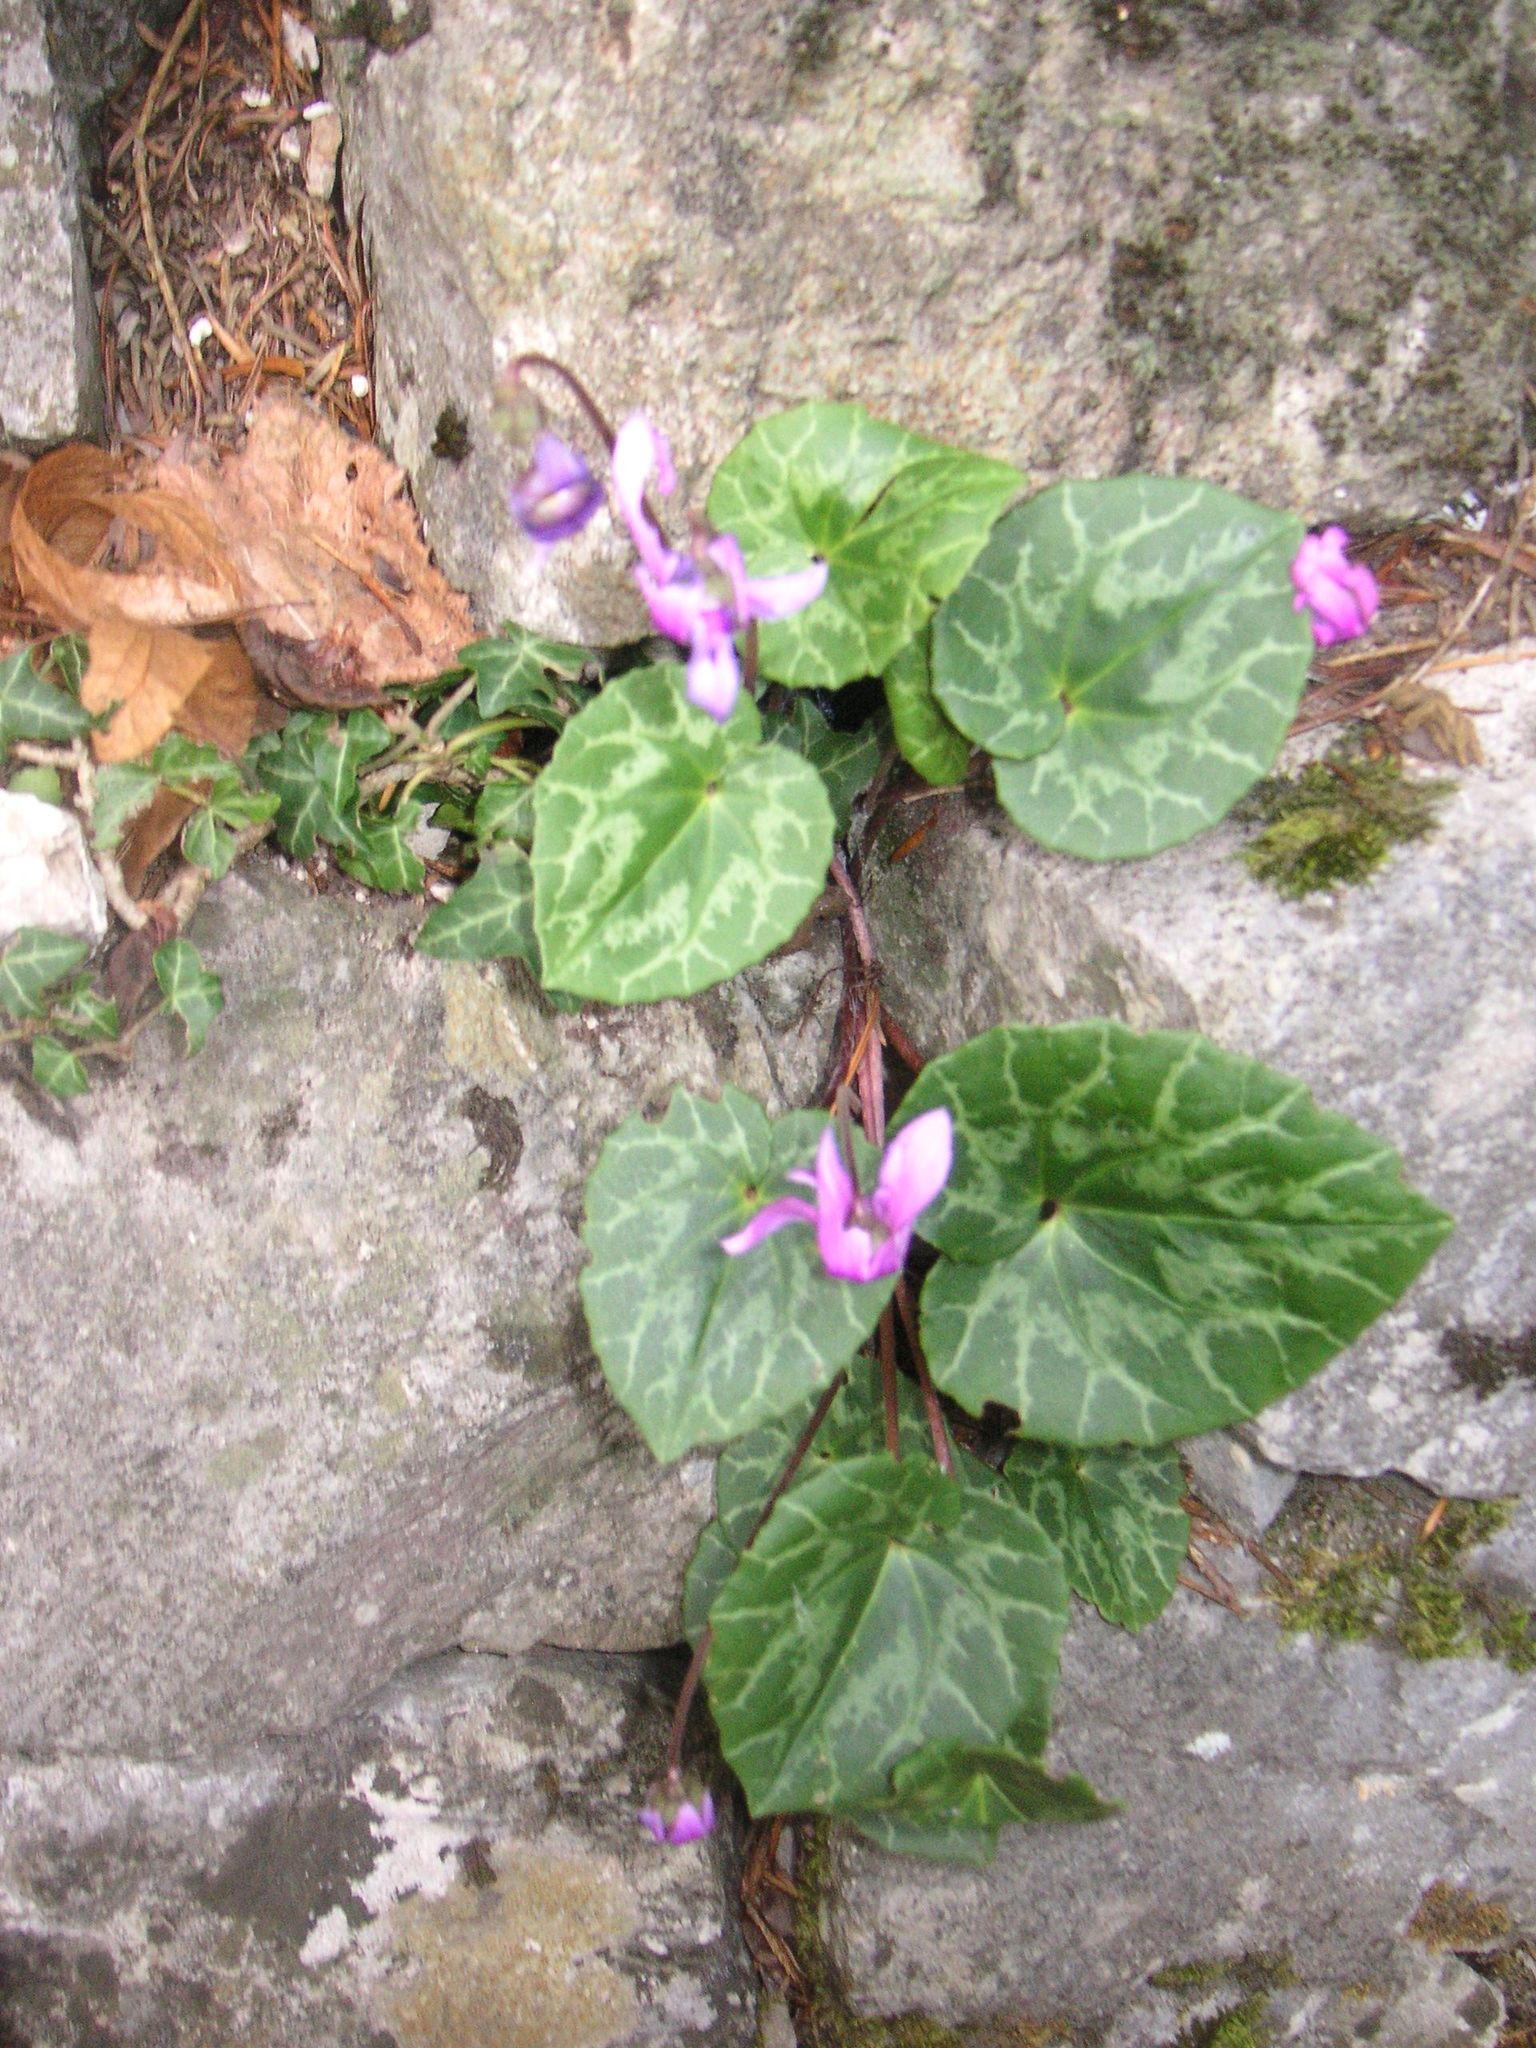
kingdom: Plantae
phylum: Tracheophyta
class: Magnoliopsida
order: Ericales
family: Primulaceae
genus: Cyclamen
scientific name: Cyclamen purpurascens
